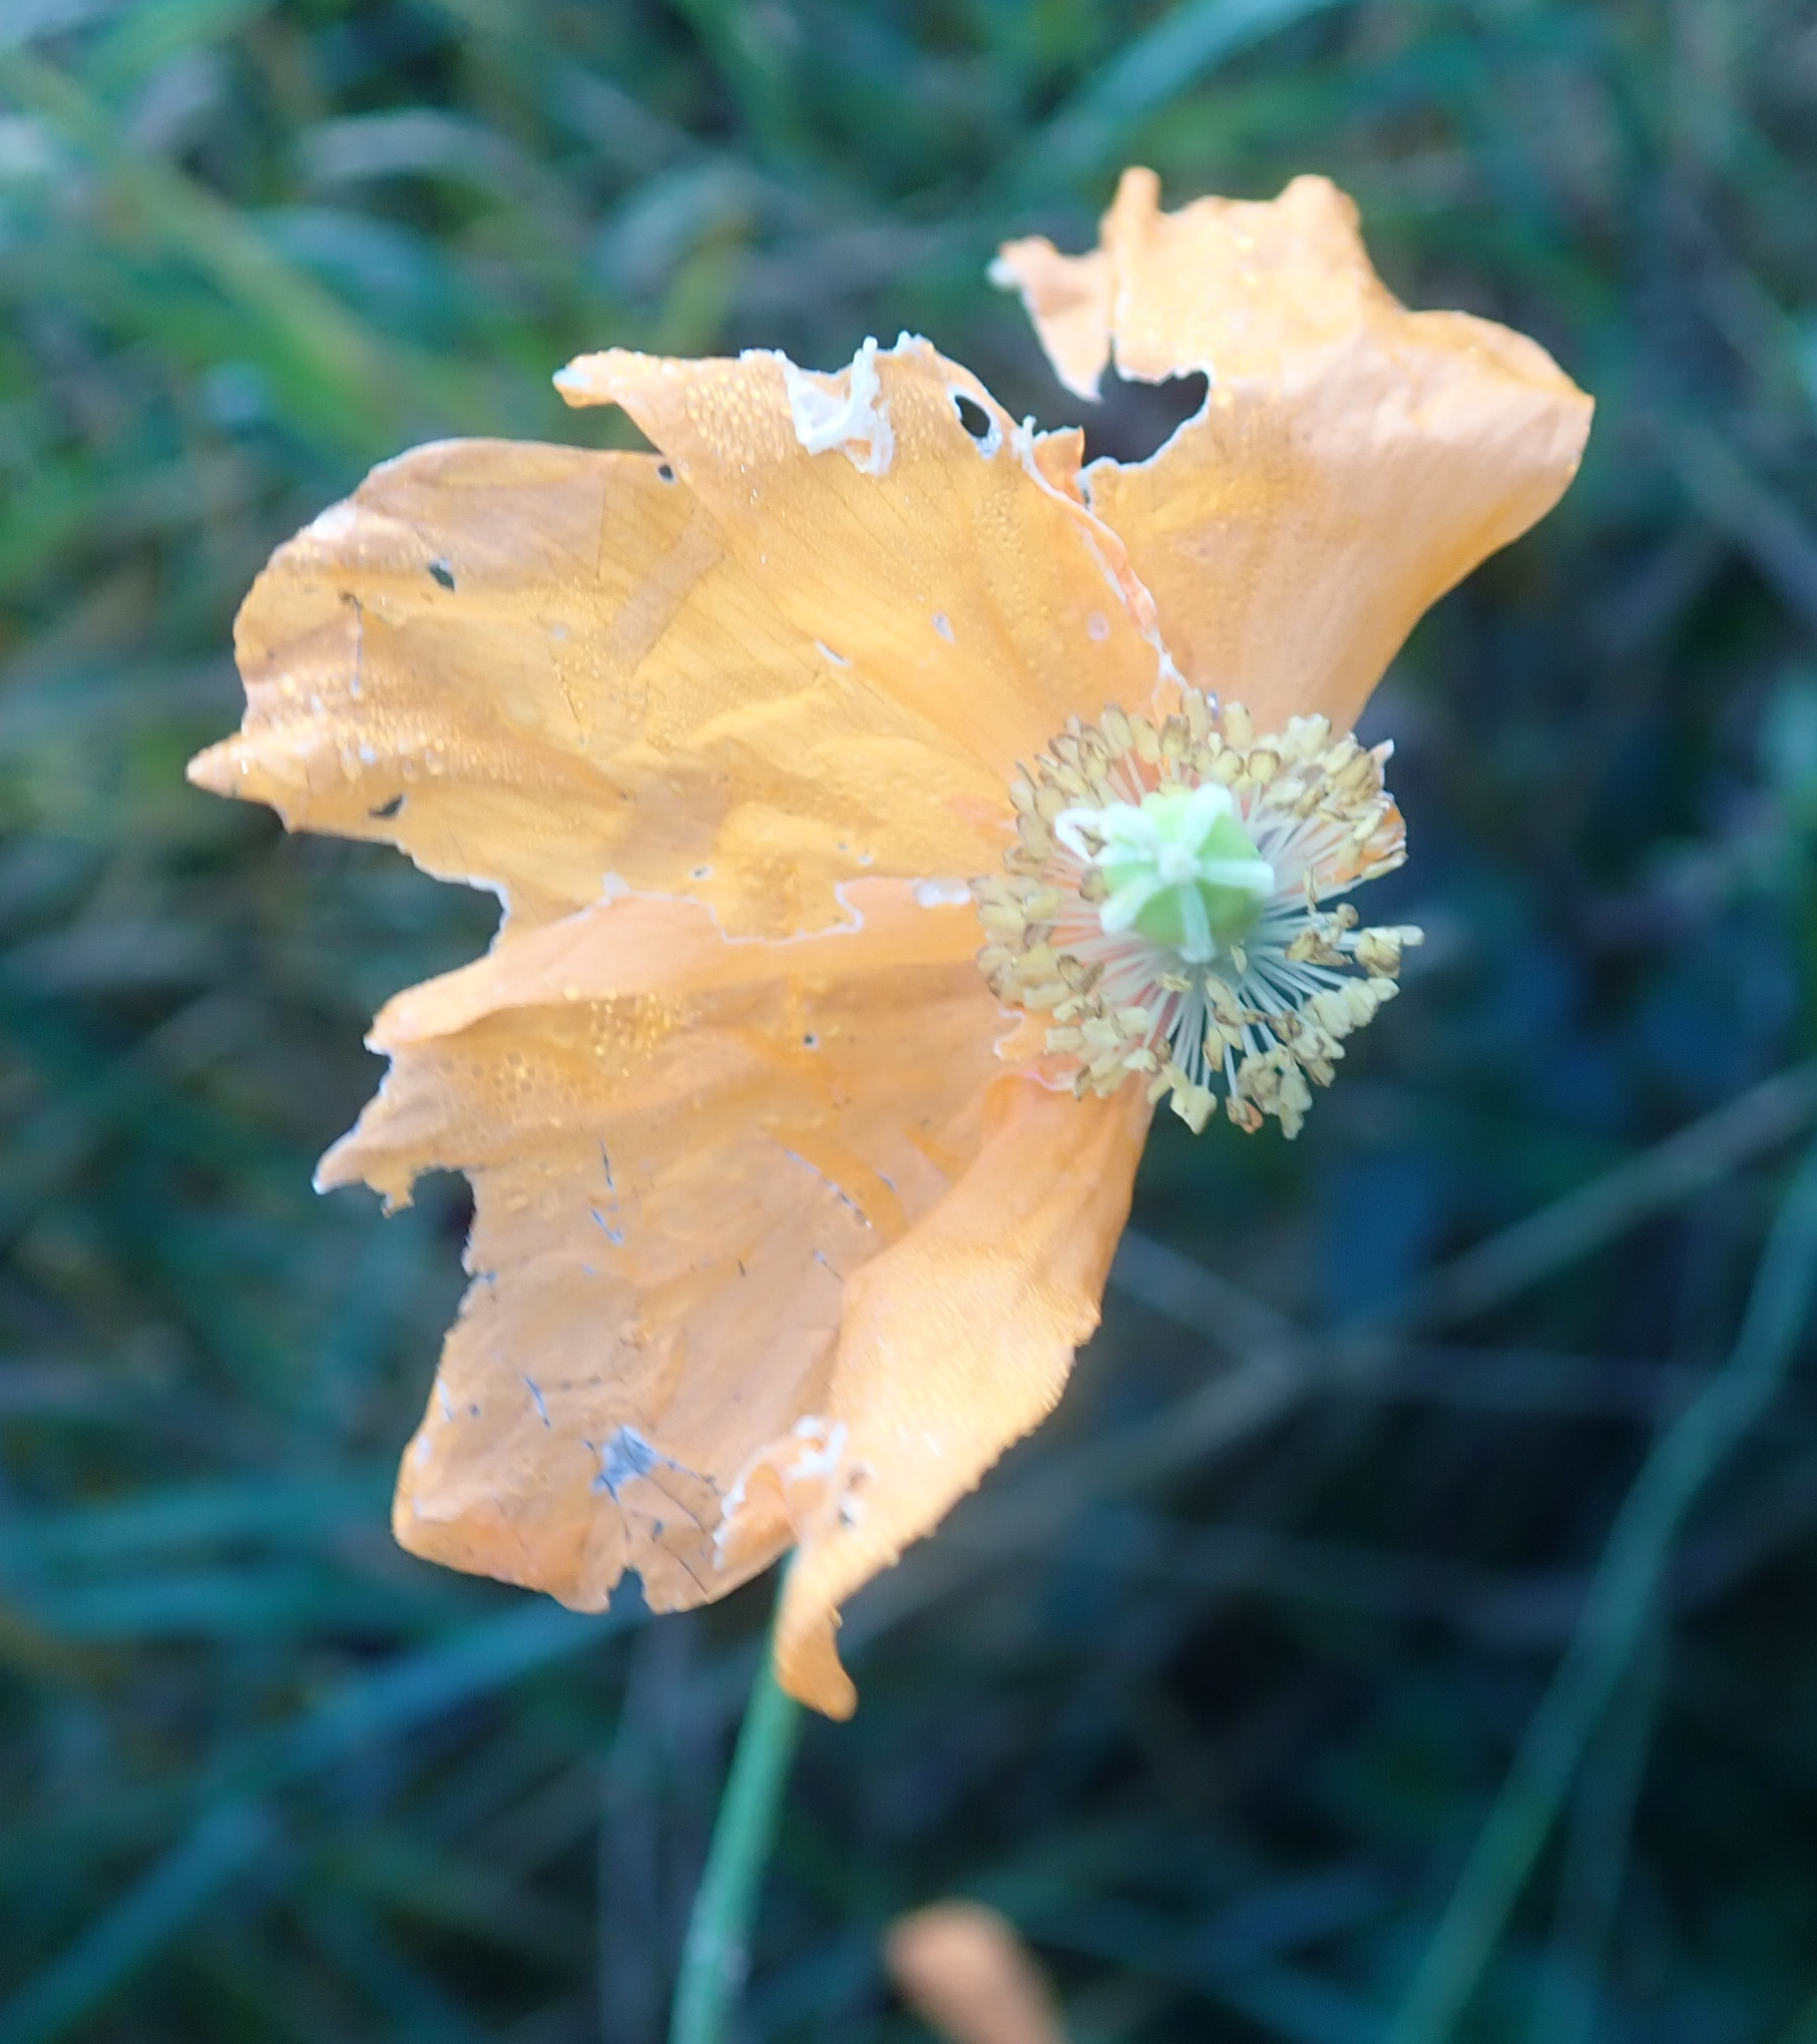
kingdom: Plantae
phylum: Tracheophyta
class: Magnoliopsida
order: Ranunculales
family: Papaveraceae
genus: Papaver
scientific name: Papaver atlanticum
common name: Atlas poppy
